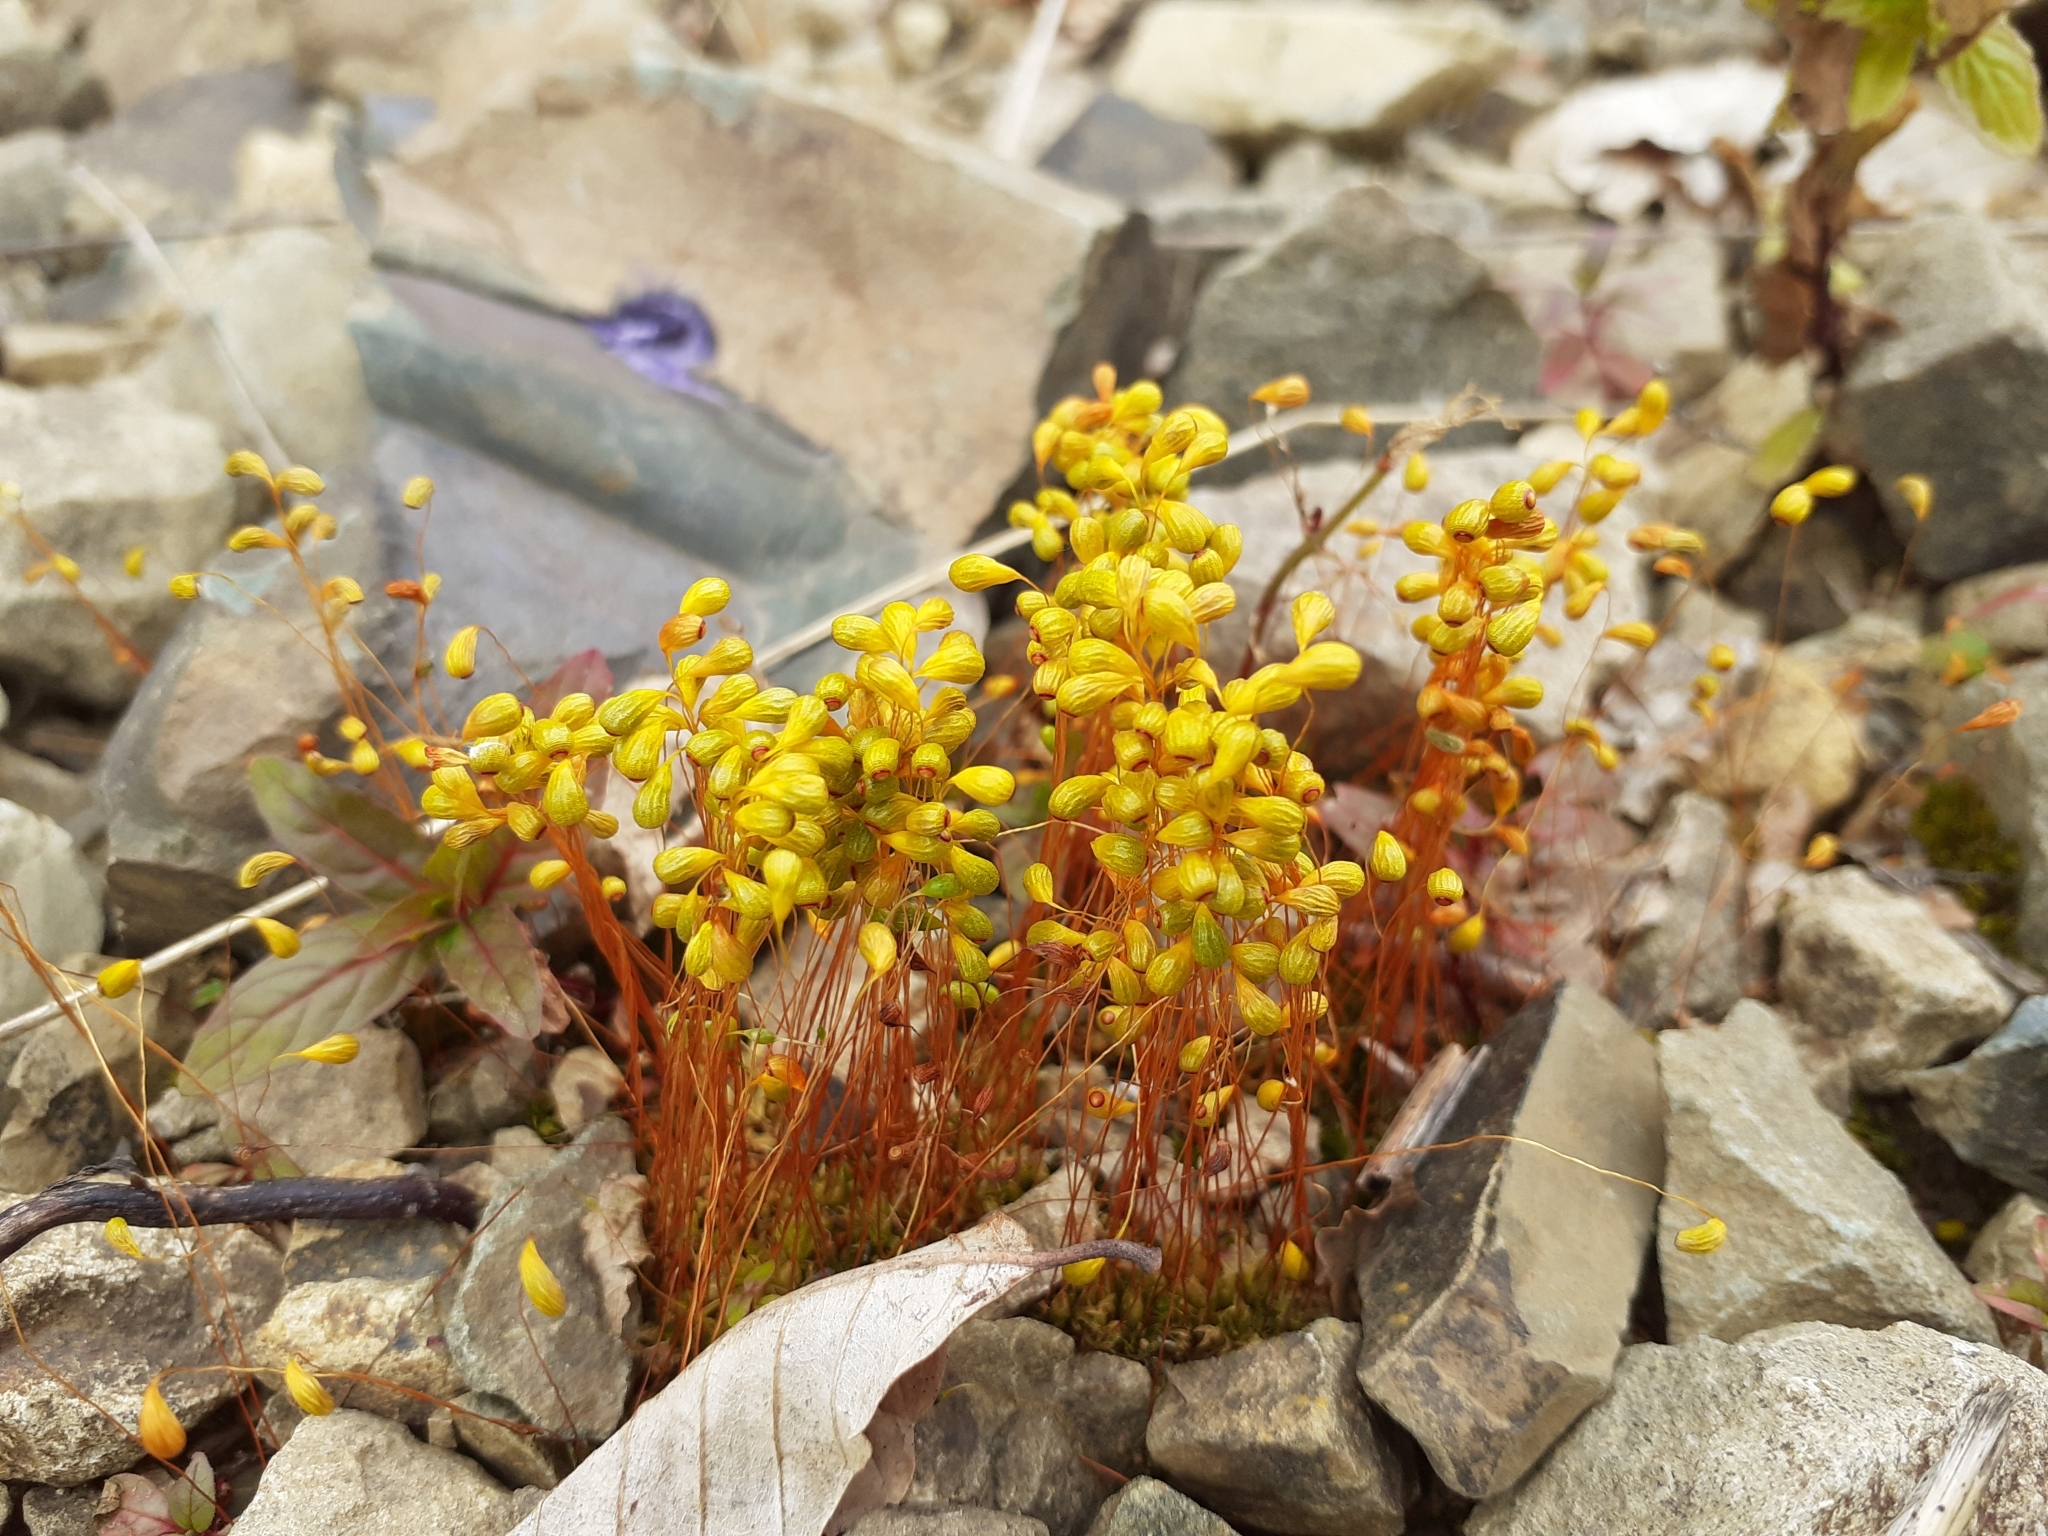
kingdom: Plantae
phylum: Bryophyta
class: Bryopsida
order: Funariales
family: Funariaceae
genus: Funaria
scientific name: Funaria hygrometrica
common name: Common cord moss
